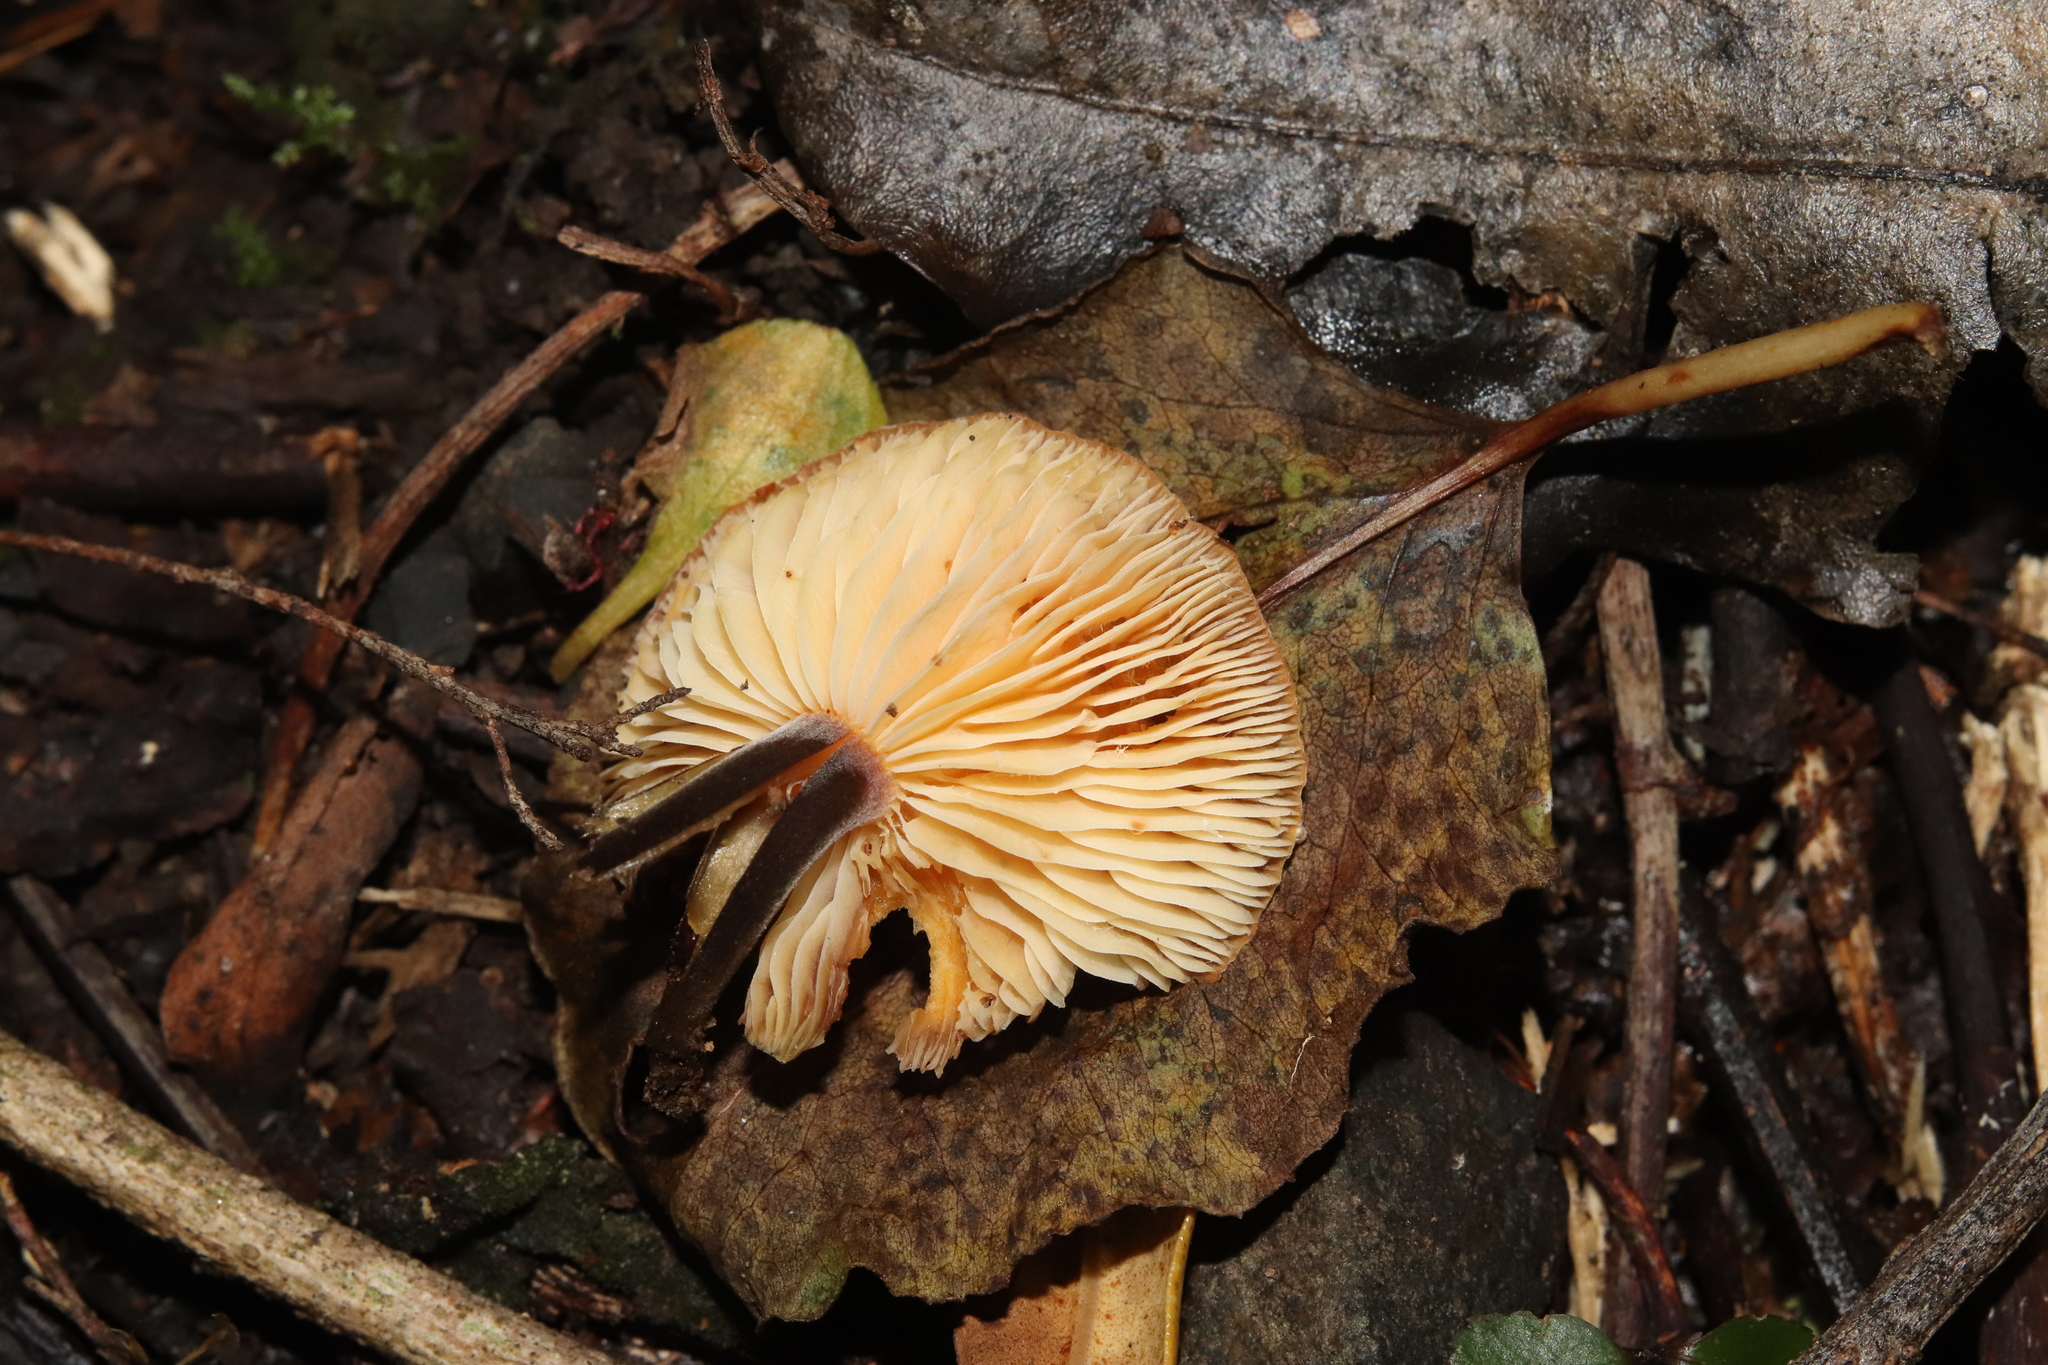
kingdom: Fungi
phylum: Basidiomycota
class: Agaricomycetes
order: Agaricales
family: Physalacriaceae
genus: Flammulina
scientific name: Flammulina velutipes
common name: Velvet shank
